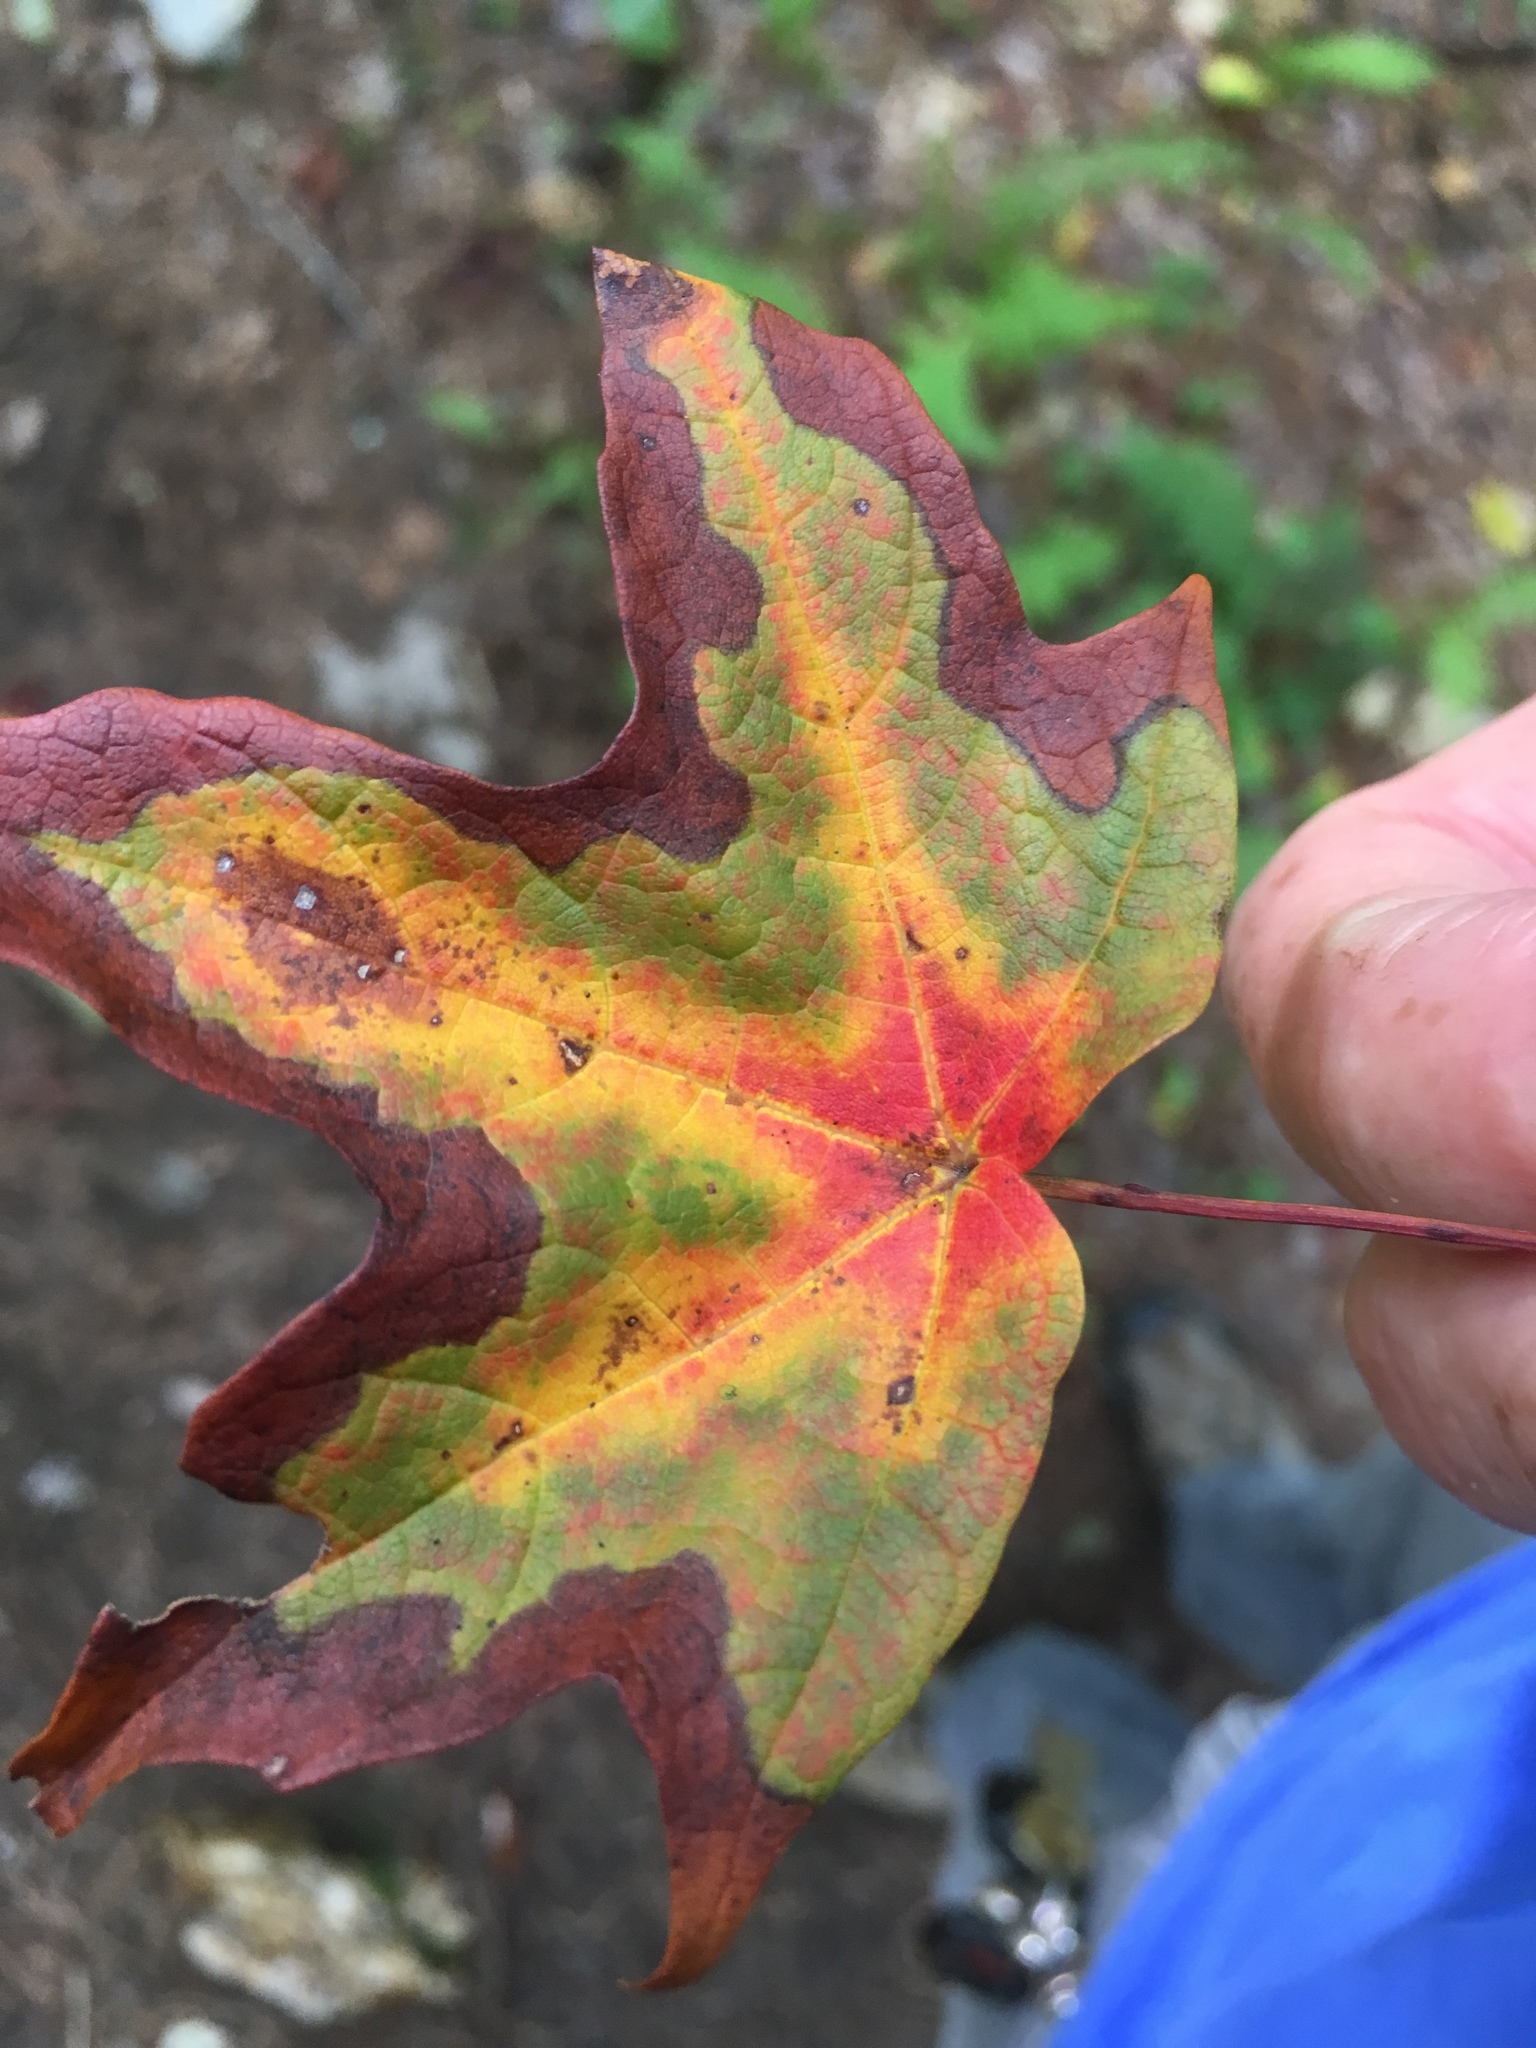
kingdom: Plantae
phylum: Tracheophyta
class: Magnoliopsida
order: Sapindales
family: Sapindaceae
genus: Acer
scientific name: Acer saccharum
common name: Sugar maple
